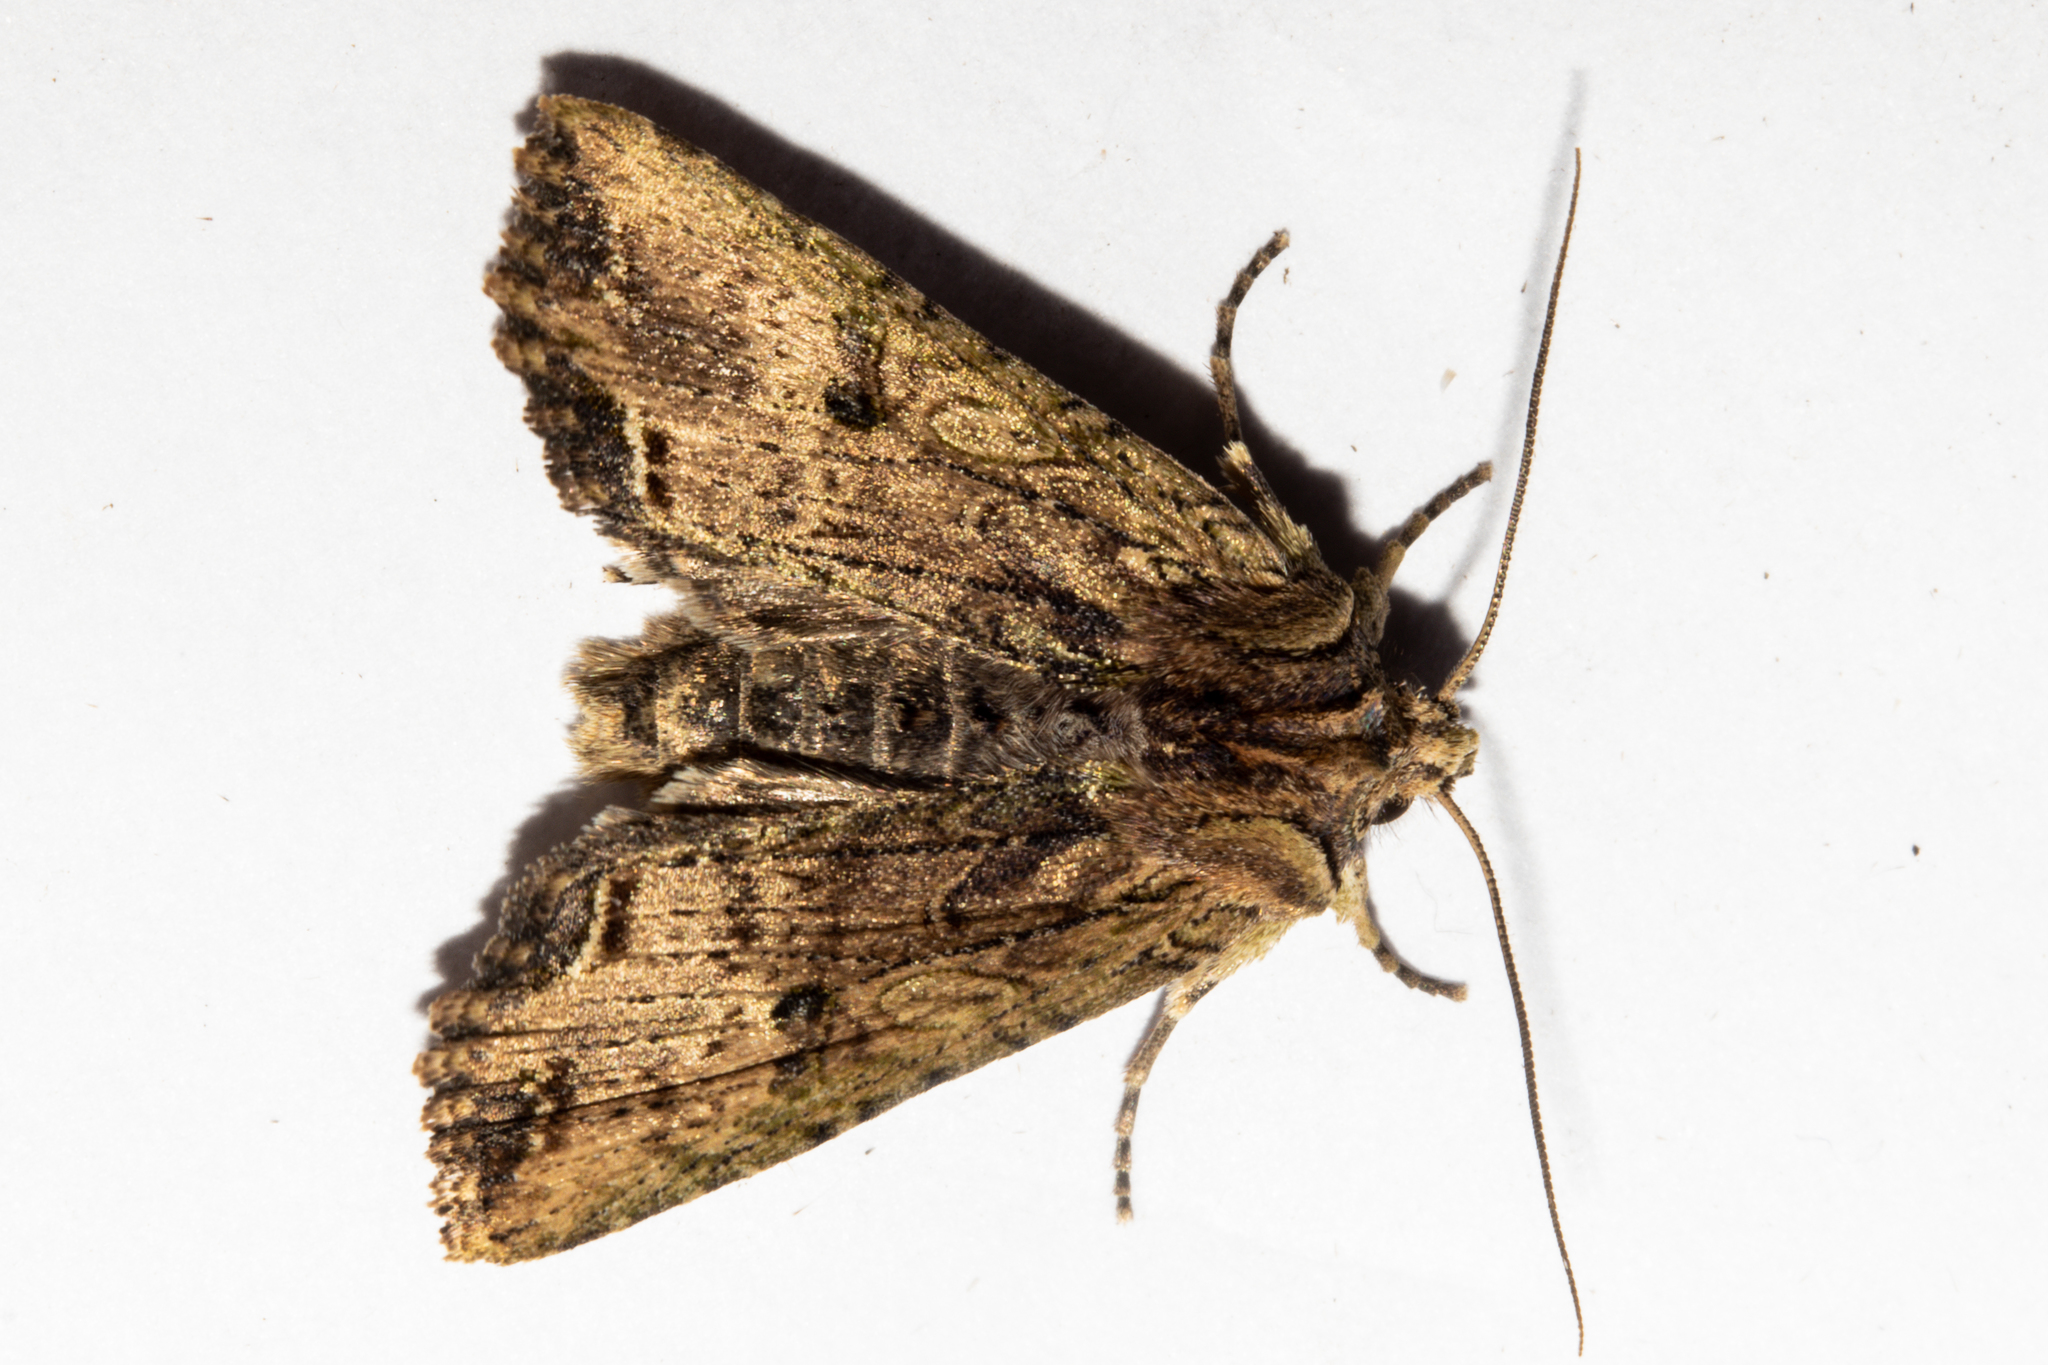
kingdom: Animalia
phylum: Arthropoda
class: Insecta
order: Lepidoptera
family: Noctuidae
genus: Meterana
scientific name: Meterana coeleno
